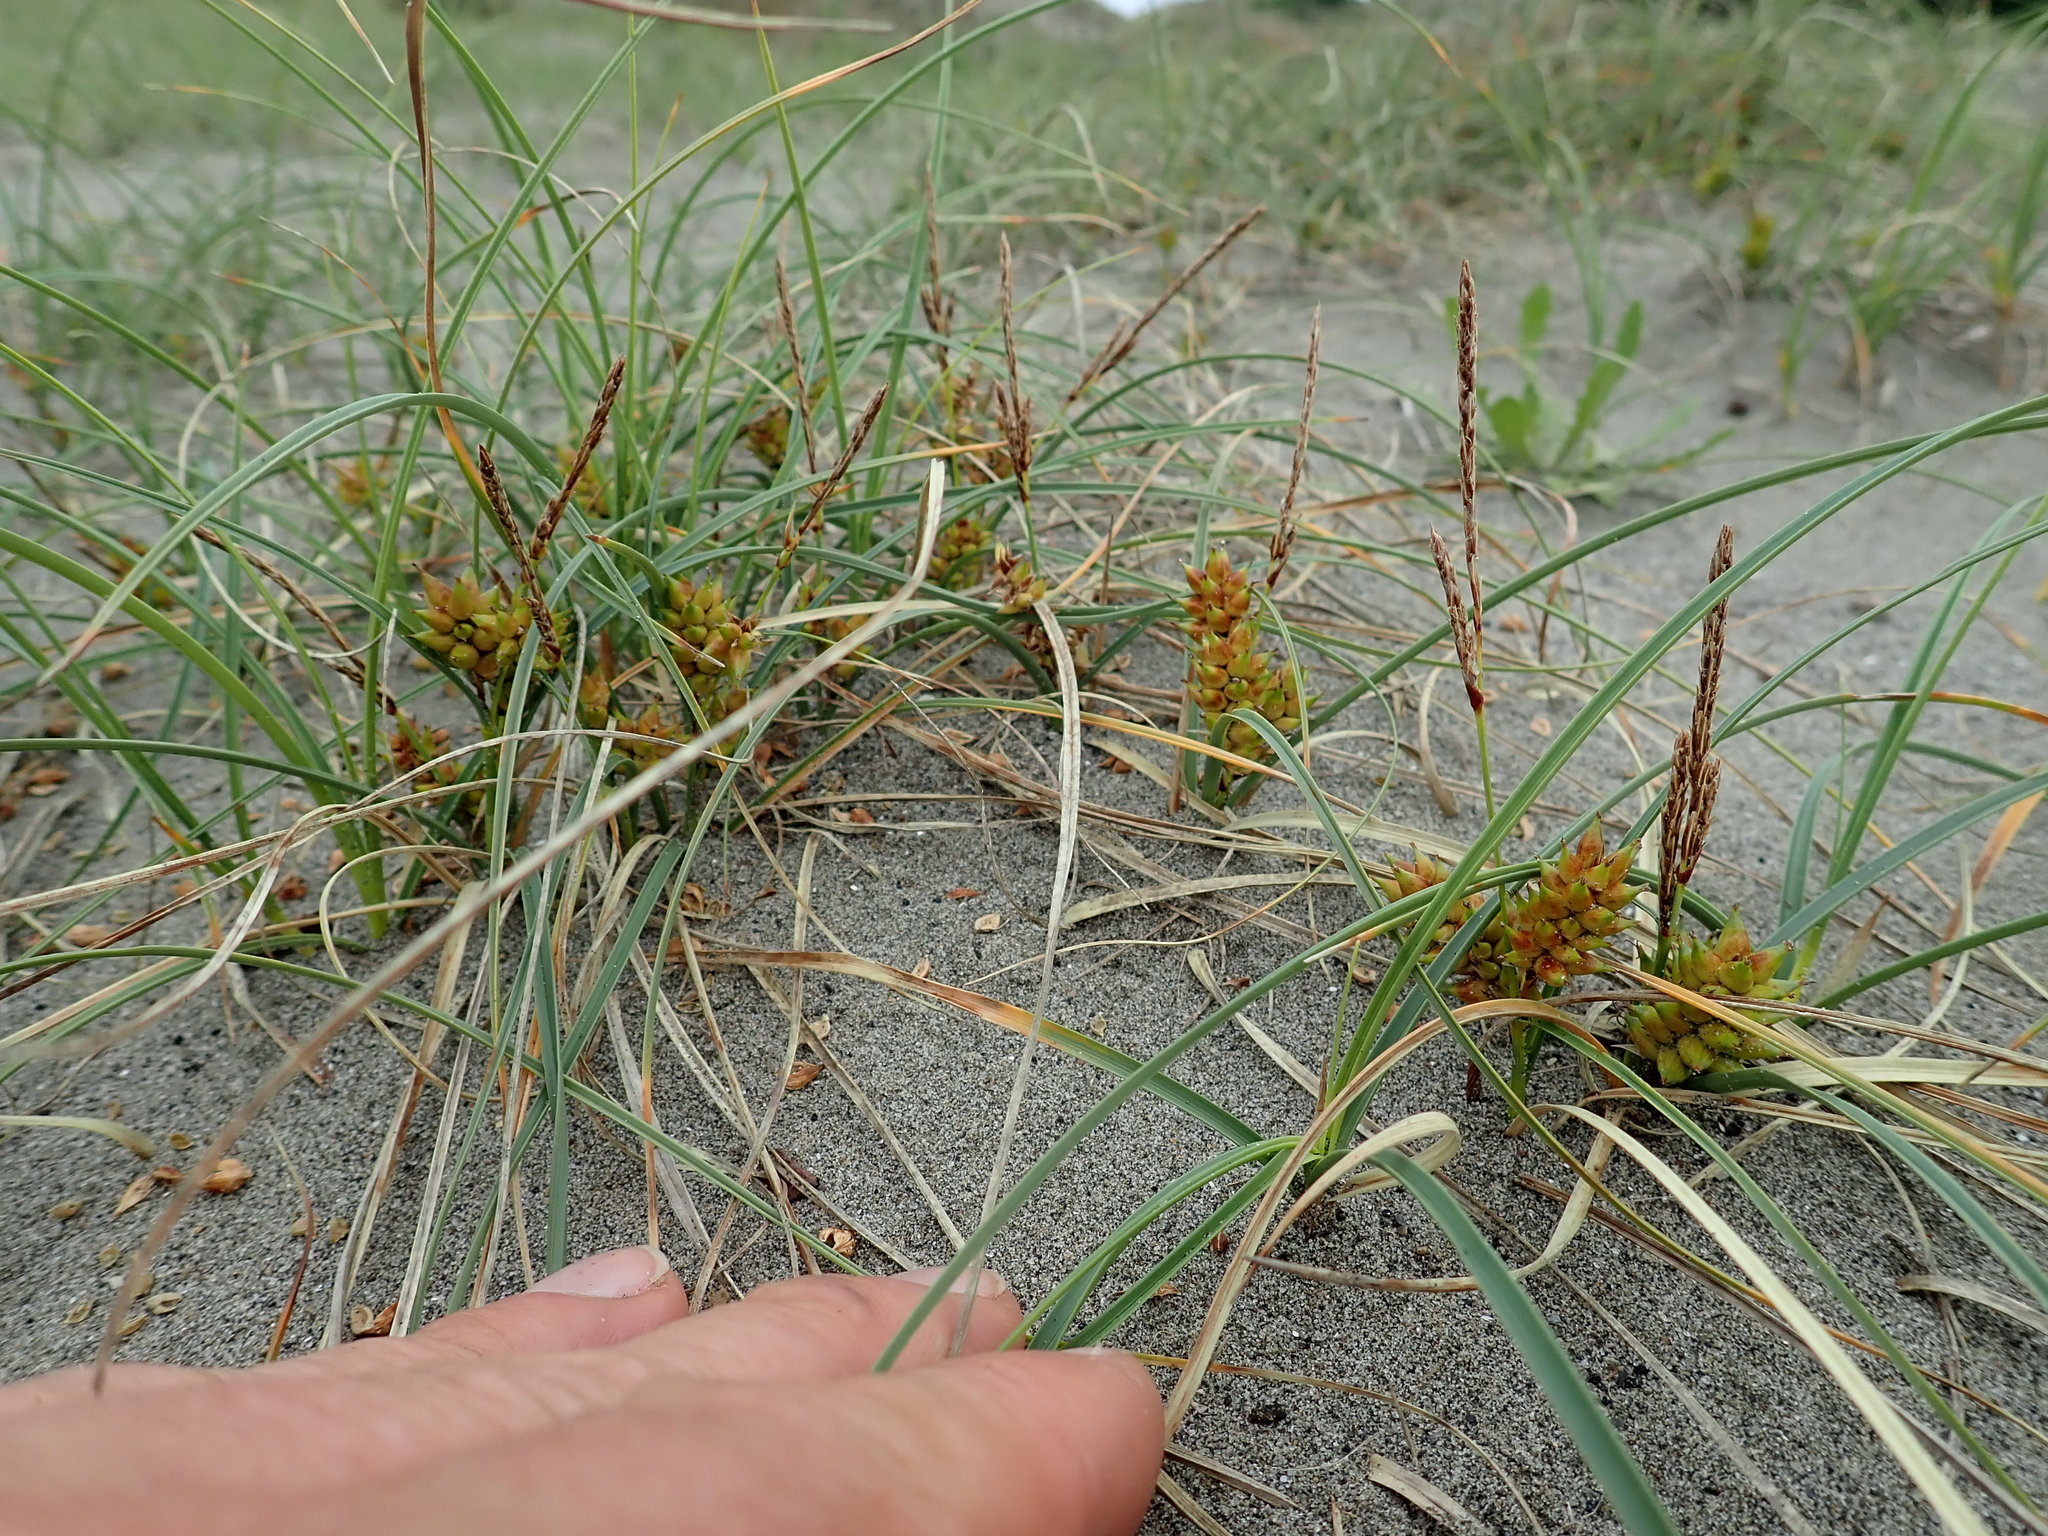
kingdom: Plantae
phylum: Tracheophyta
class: Liliopsida
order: Poales
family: Cyperaceae
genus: Carex
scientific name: Carex pumila
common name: Dwarf sedge
